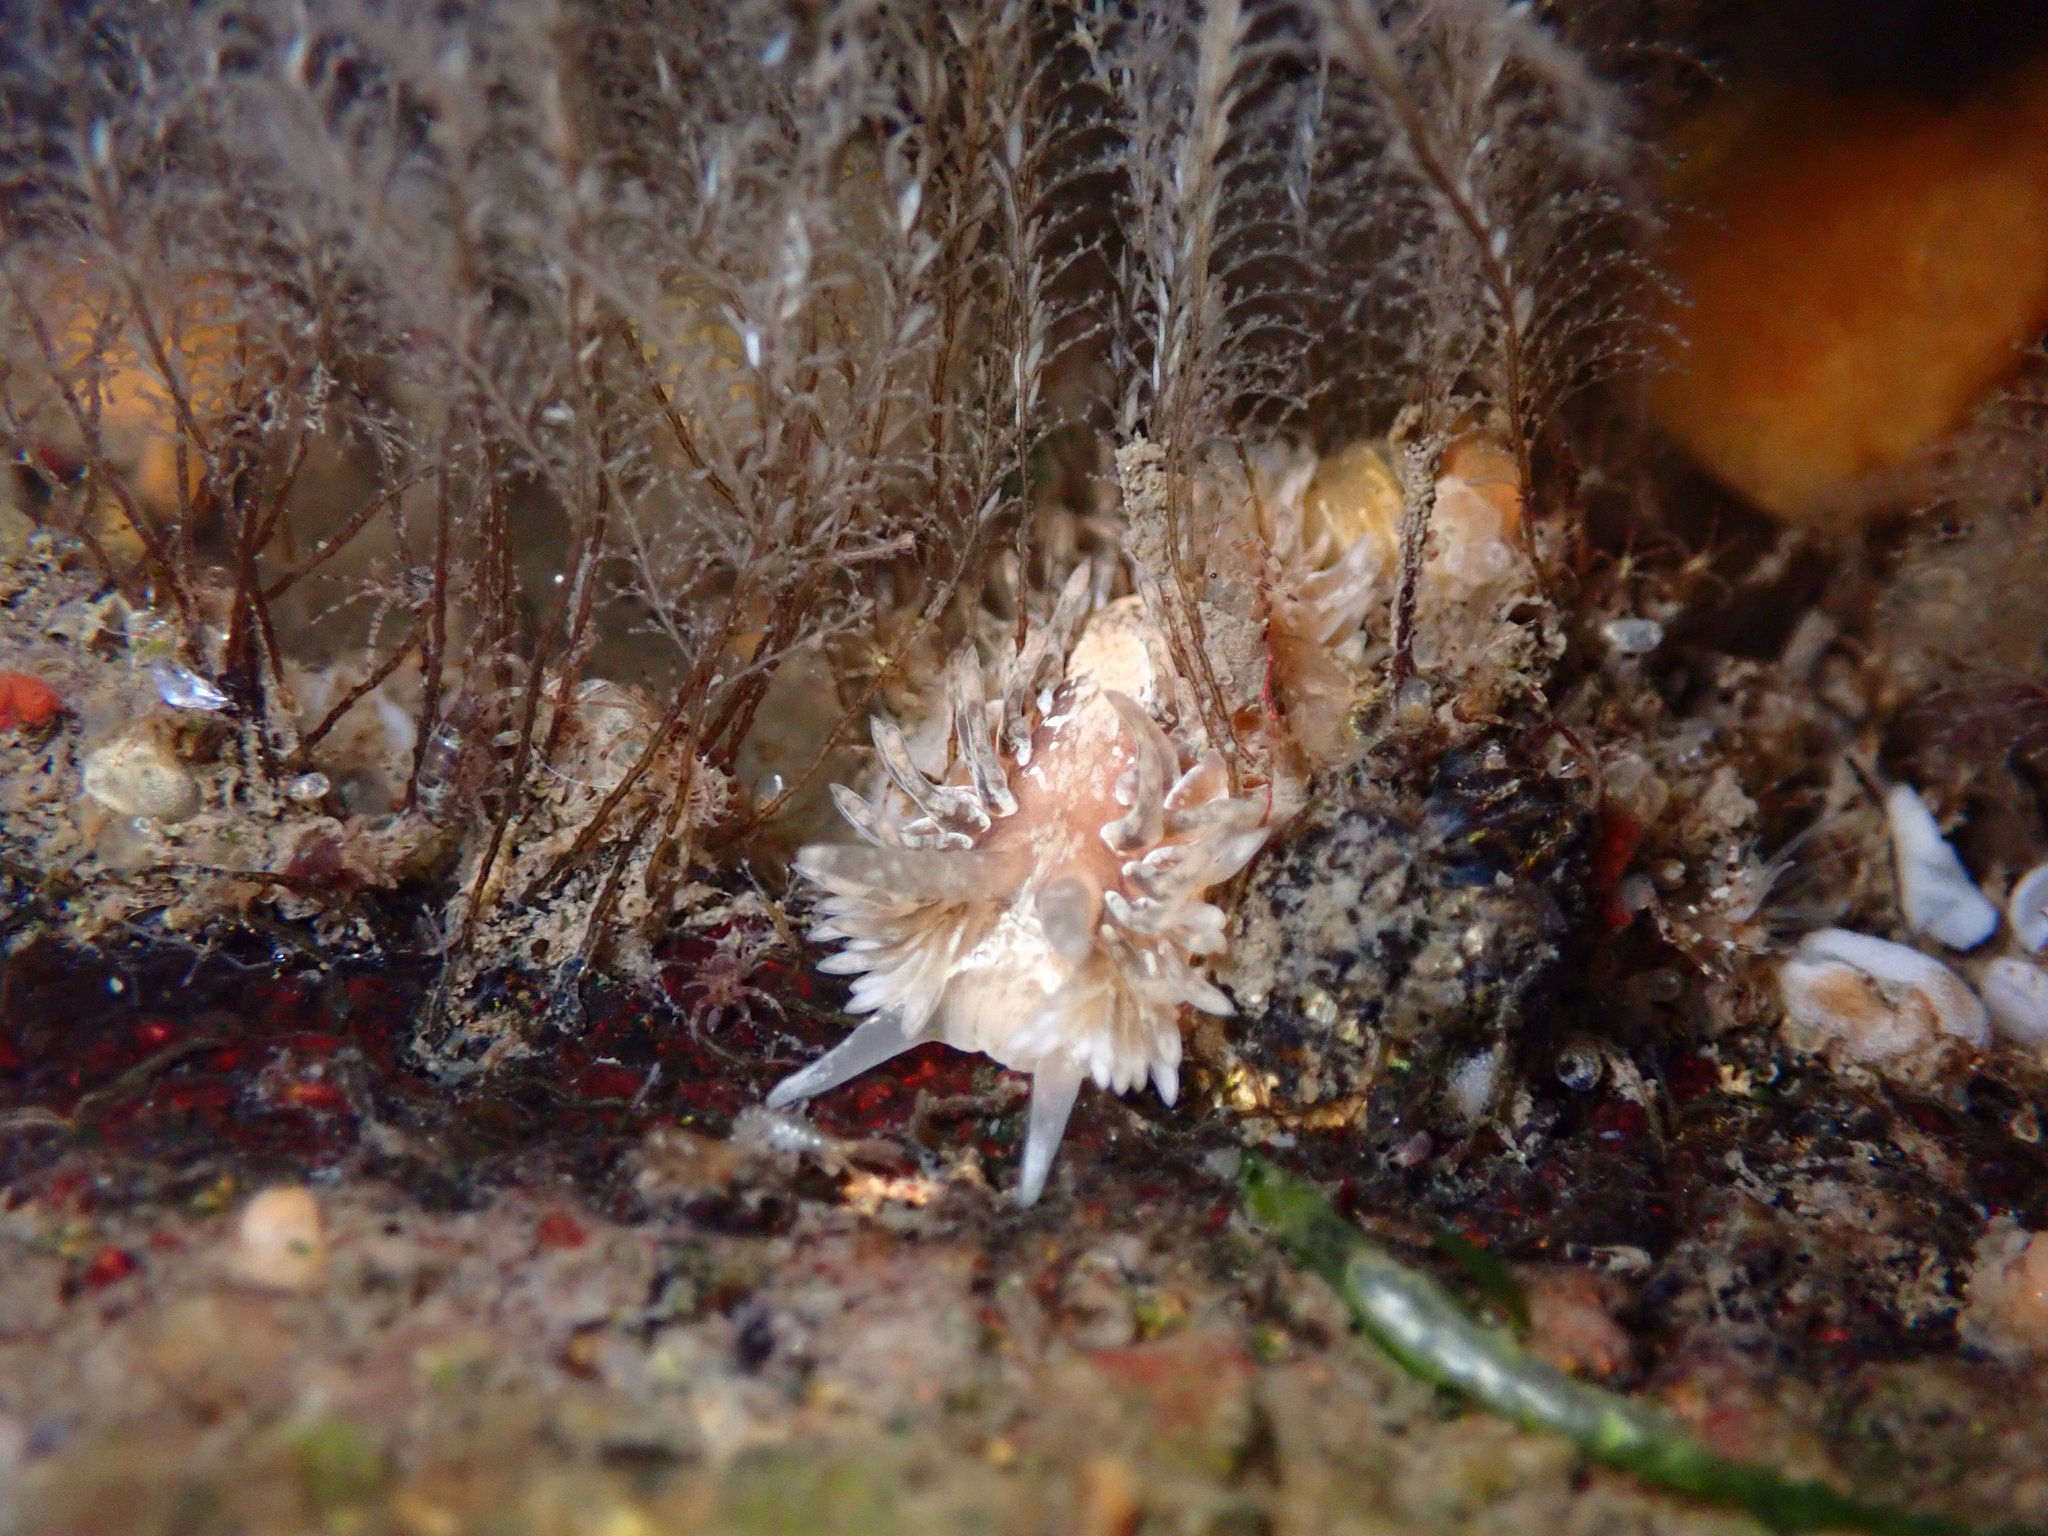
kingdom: Animalia
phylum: Mollusca
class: Gastropoda
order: Nudibranchia
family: Aeolidiidae
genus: Aeolidia
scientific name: Aeolidia loui
